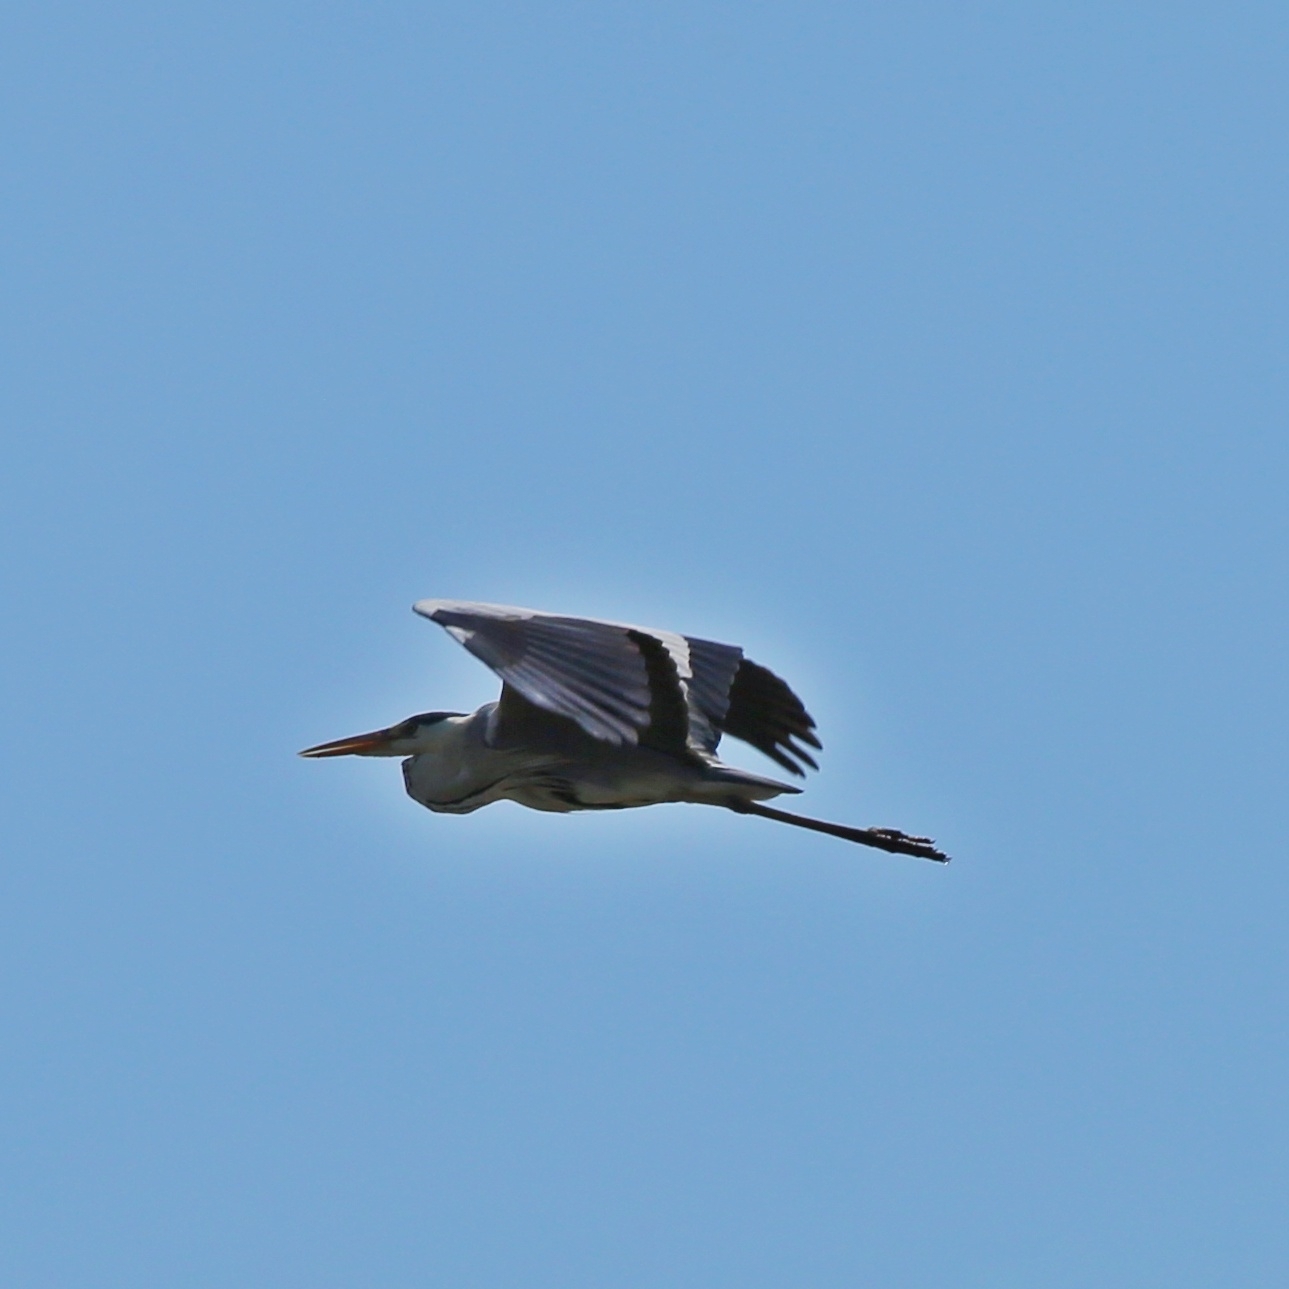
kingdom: Animalia
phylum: Chordata
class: Aves
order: Pelecaniformes
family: Ardeidae
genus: Ardea
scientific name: Ardea cinerea
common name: Grey heron
